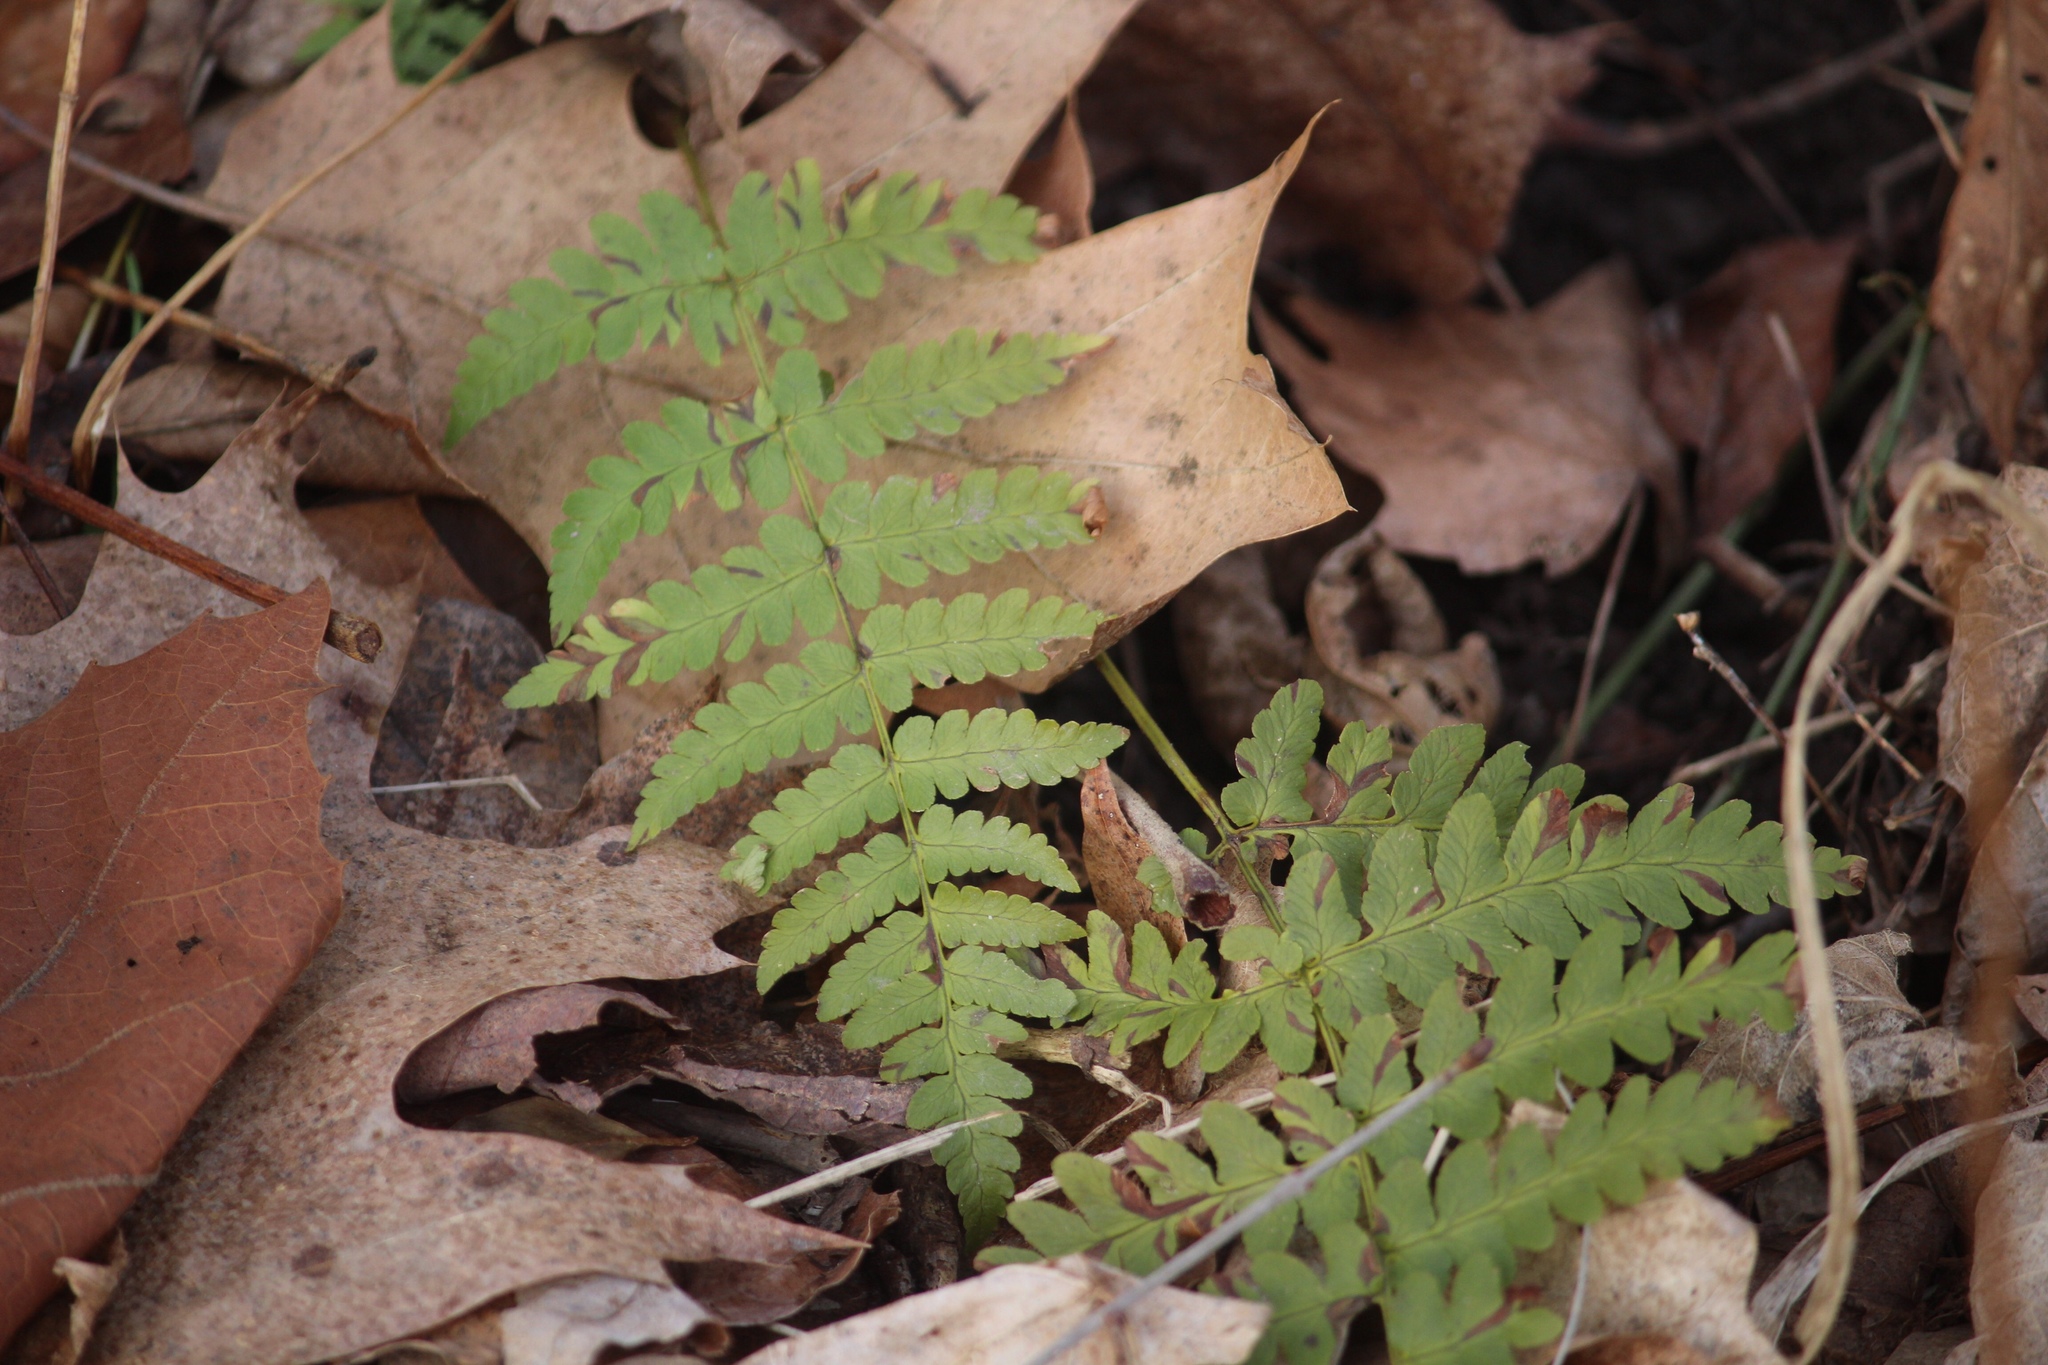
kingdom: Plantae
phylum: Tracheophyta
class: Polypodiopsida
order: Polypodiales
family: Dryopteridaceae
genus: Dryopteris
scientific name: Dryopteris marginalis
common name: Marginal wood fern
